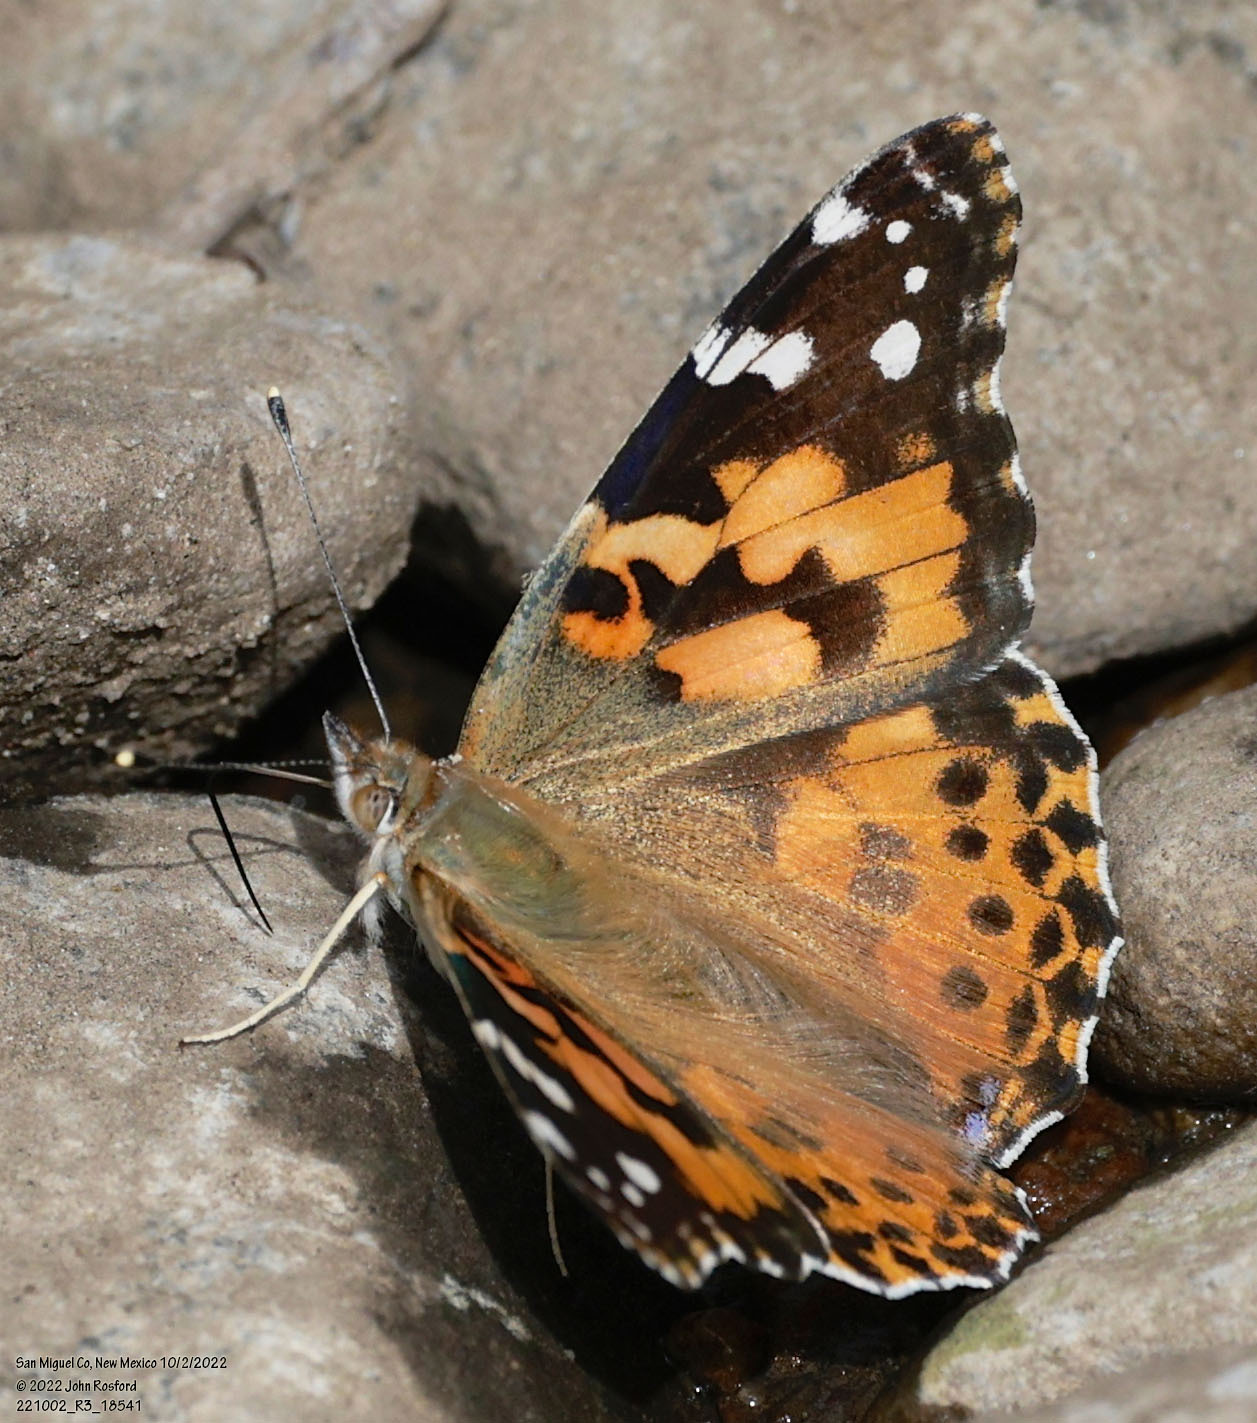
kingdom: Animalia
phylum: Arthropoda
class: Insecta
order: Lepidoptera
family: Nymphalidae
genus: Vanessa
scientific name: Vanessa cardui
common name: Painted lady
